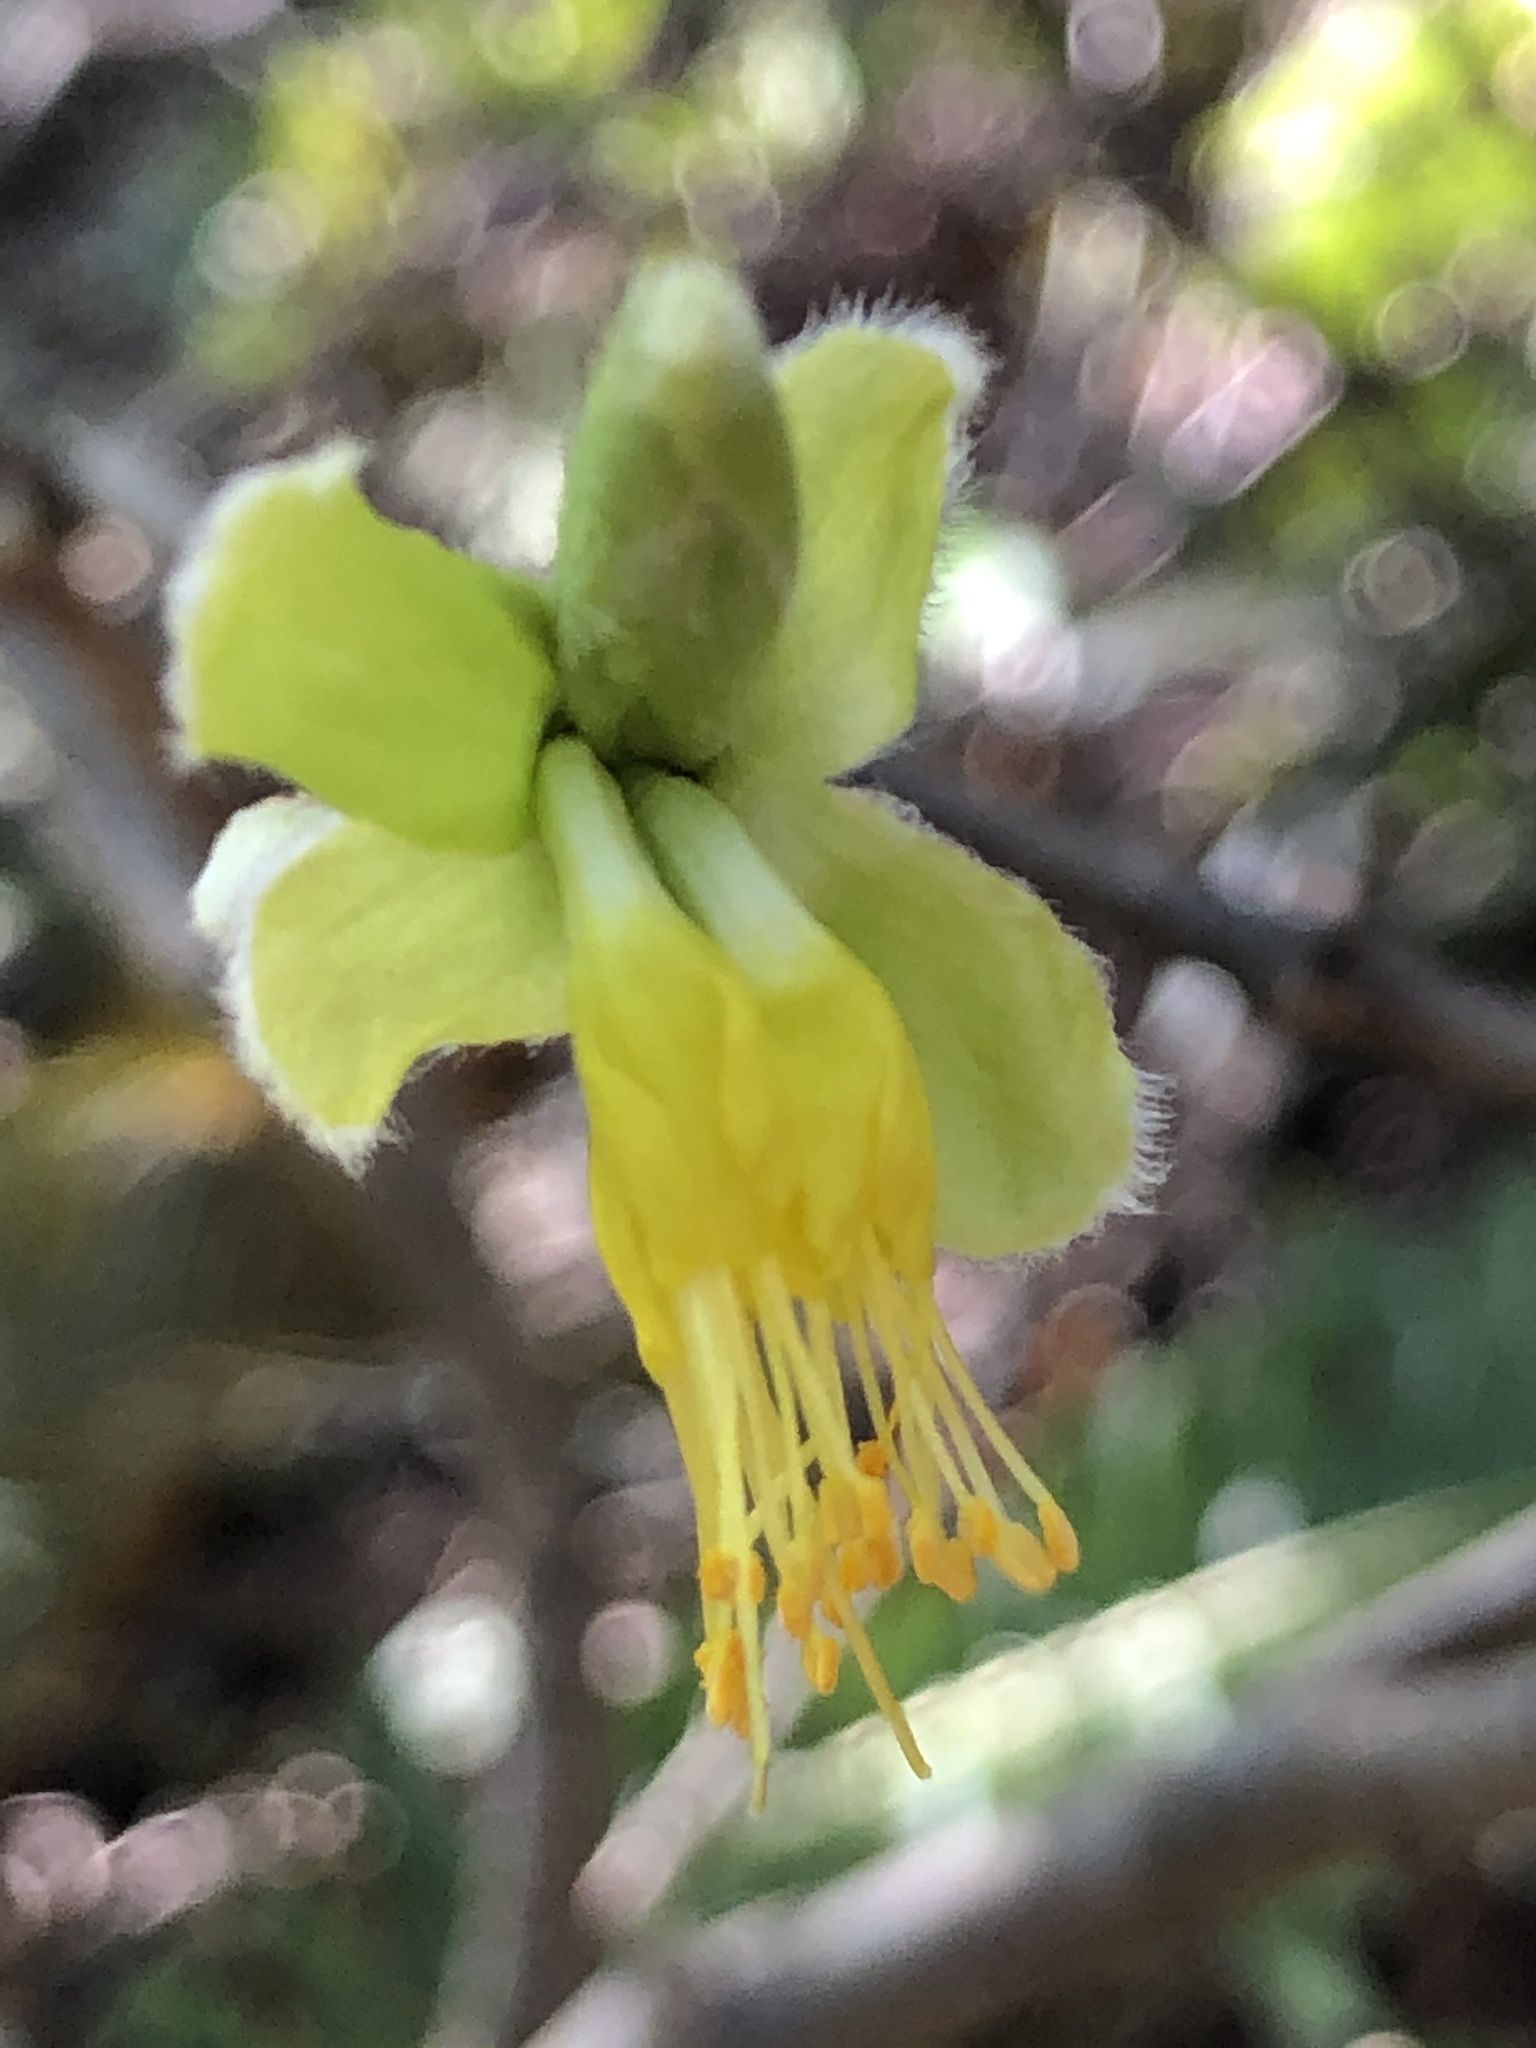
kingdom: Plantae
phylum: Tracheophyta
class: Magnoliopsida
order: Malvales
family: Thymelaeaceae
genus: Dirca
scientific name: Dirca occidentalis
